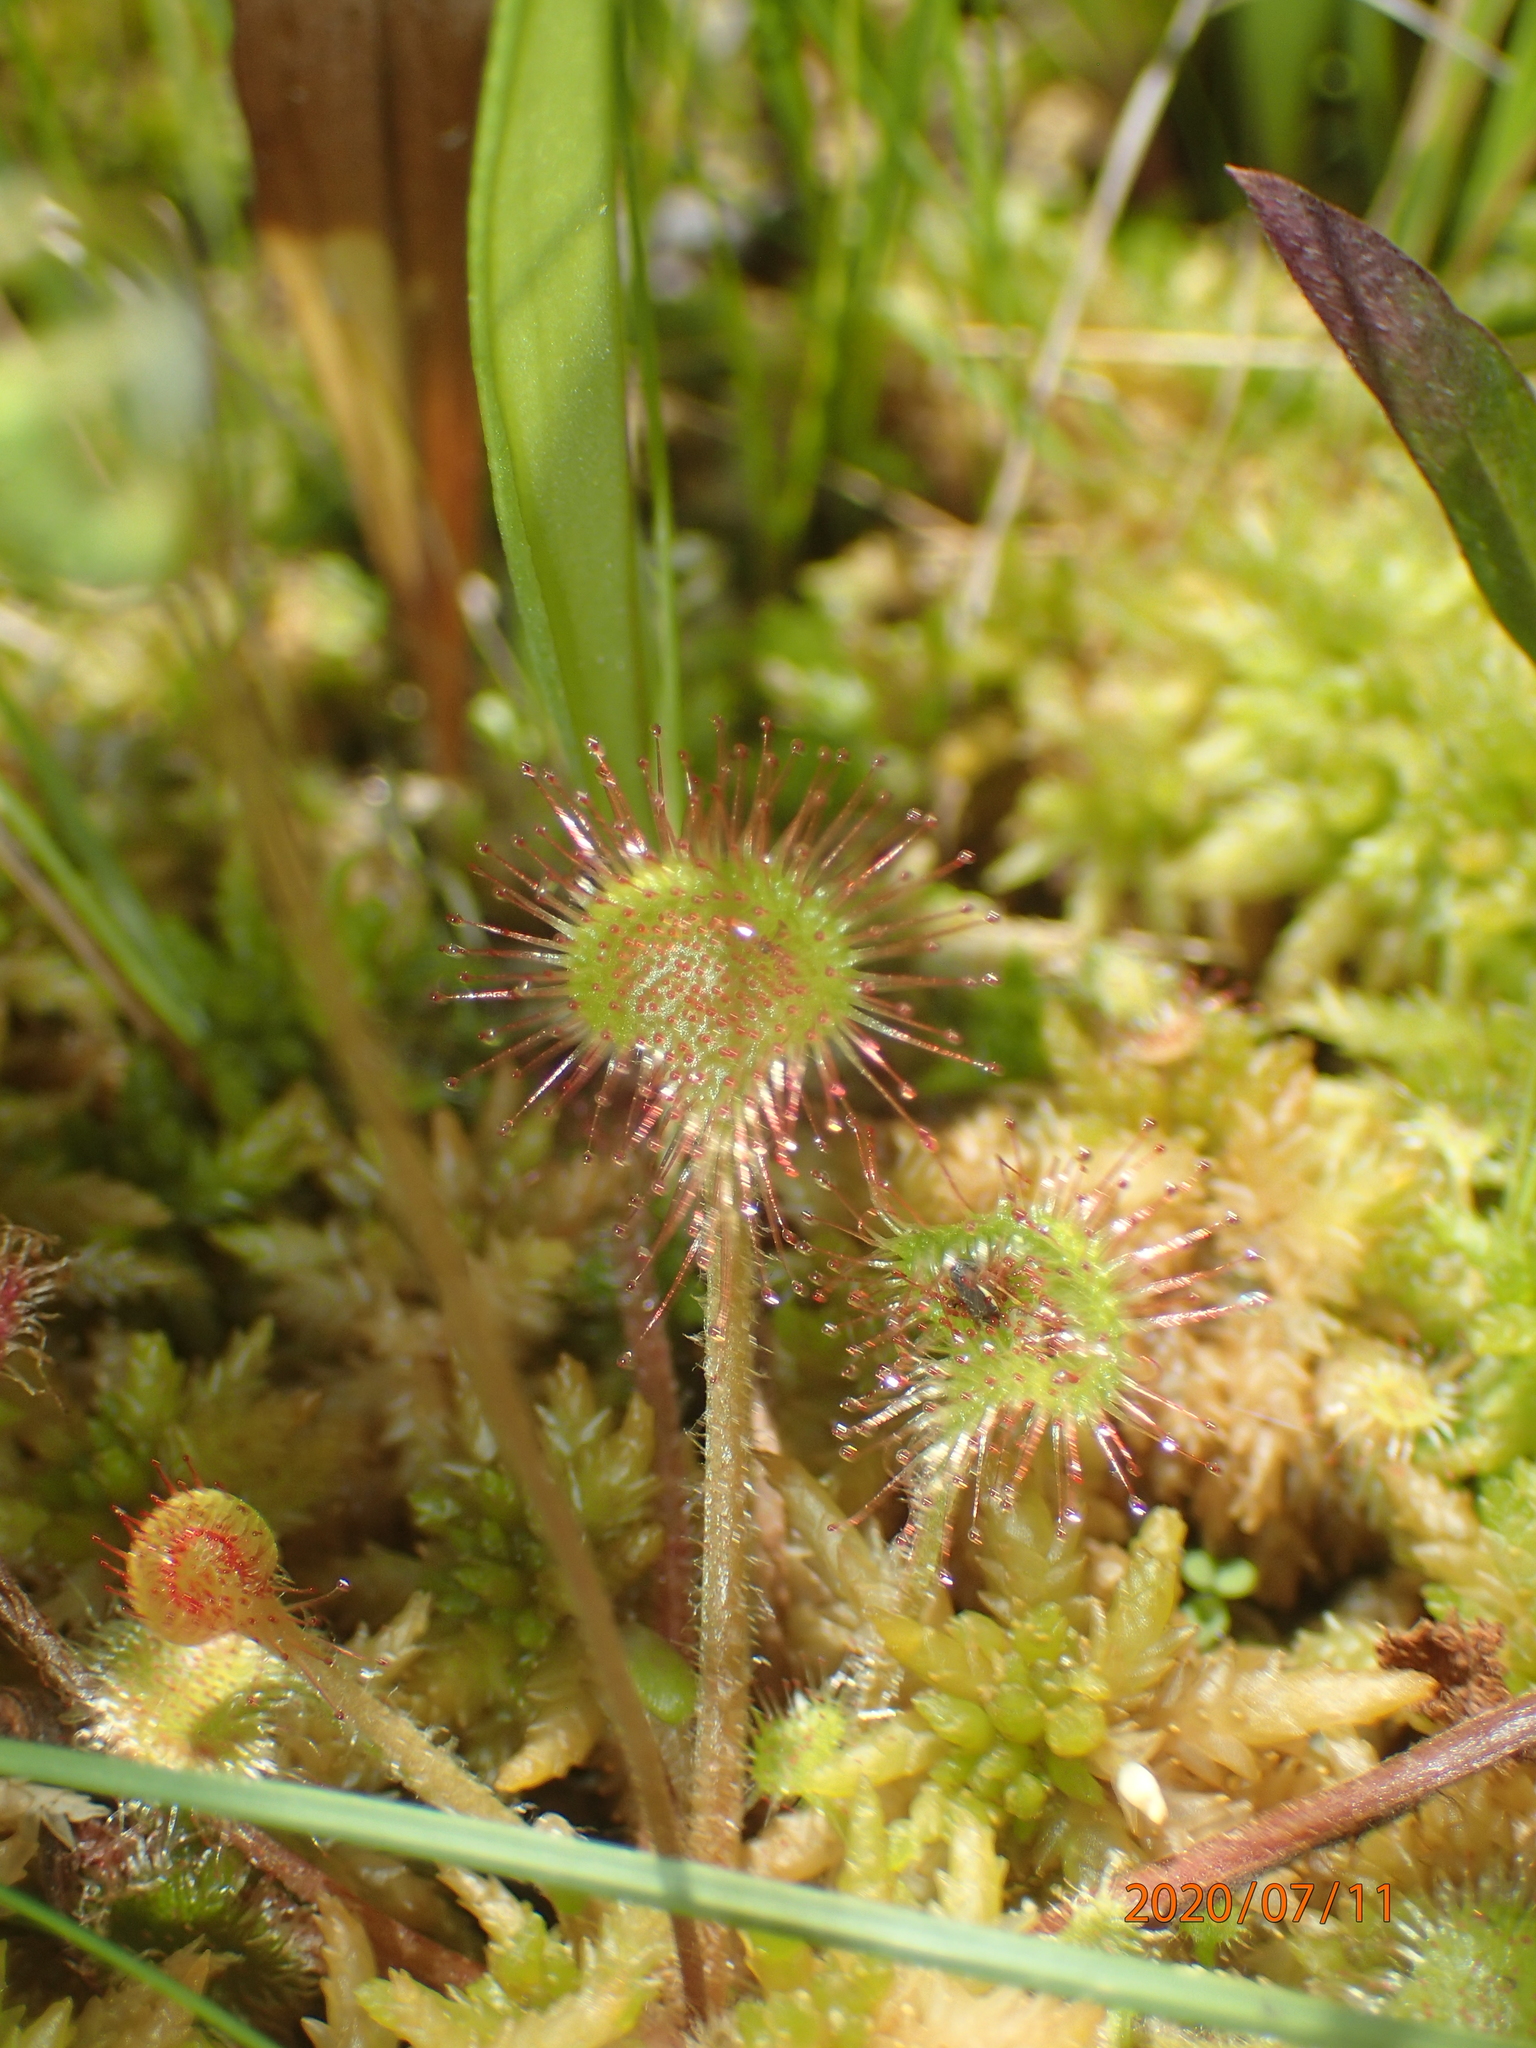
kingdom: Plantae
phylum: Tracheophyta
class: Magnoliopsida
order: Caryophyllales
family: Droseraceae
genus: Drosera
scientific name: Drosera rotundifolia
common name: Round-leaved sundew
